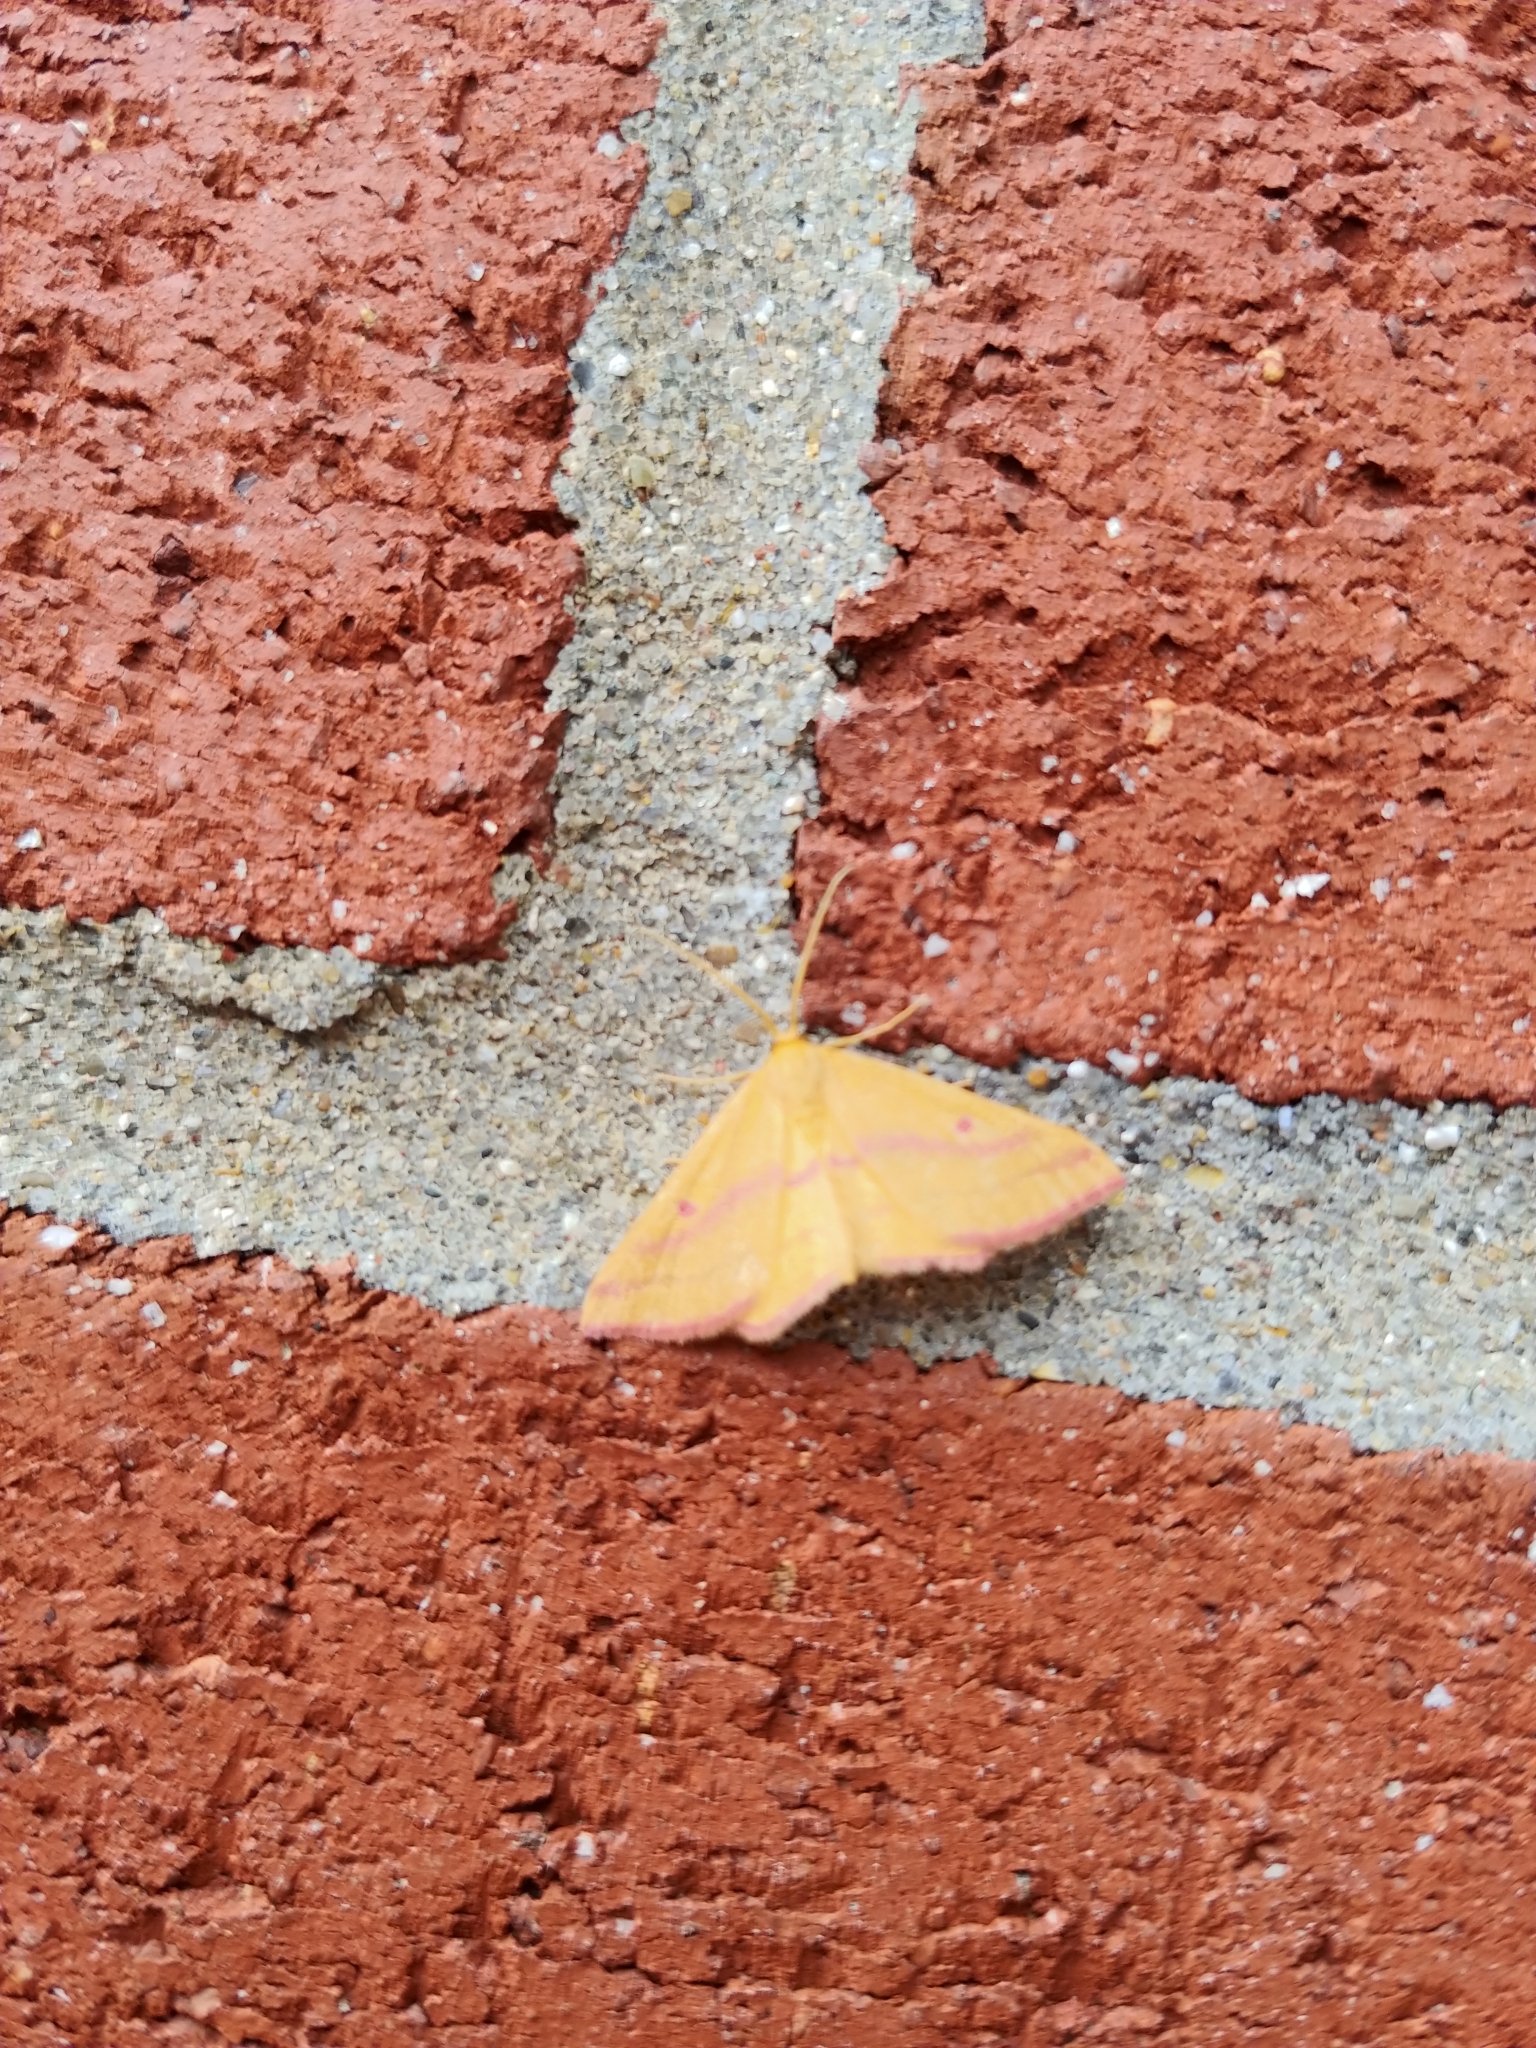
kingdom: Animalia
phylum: Arthropoda
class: Insecta
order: Lepidoptera
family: Geometridae
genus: Haematopis
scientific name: Haematopis grataria
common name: Chickweed geometer
